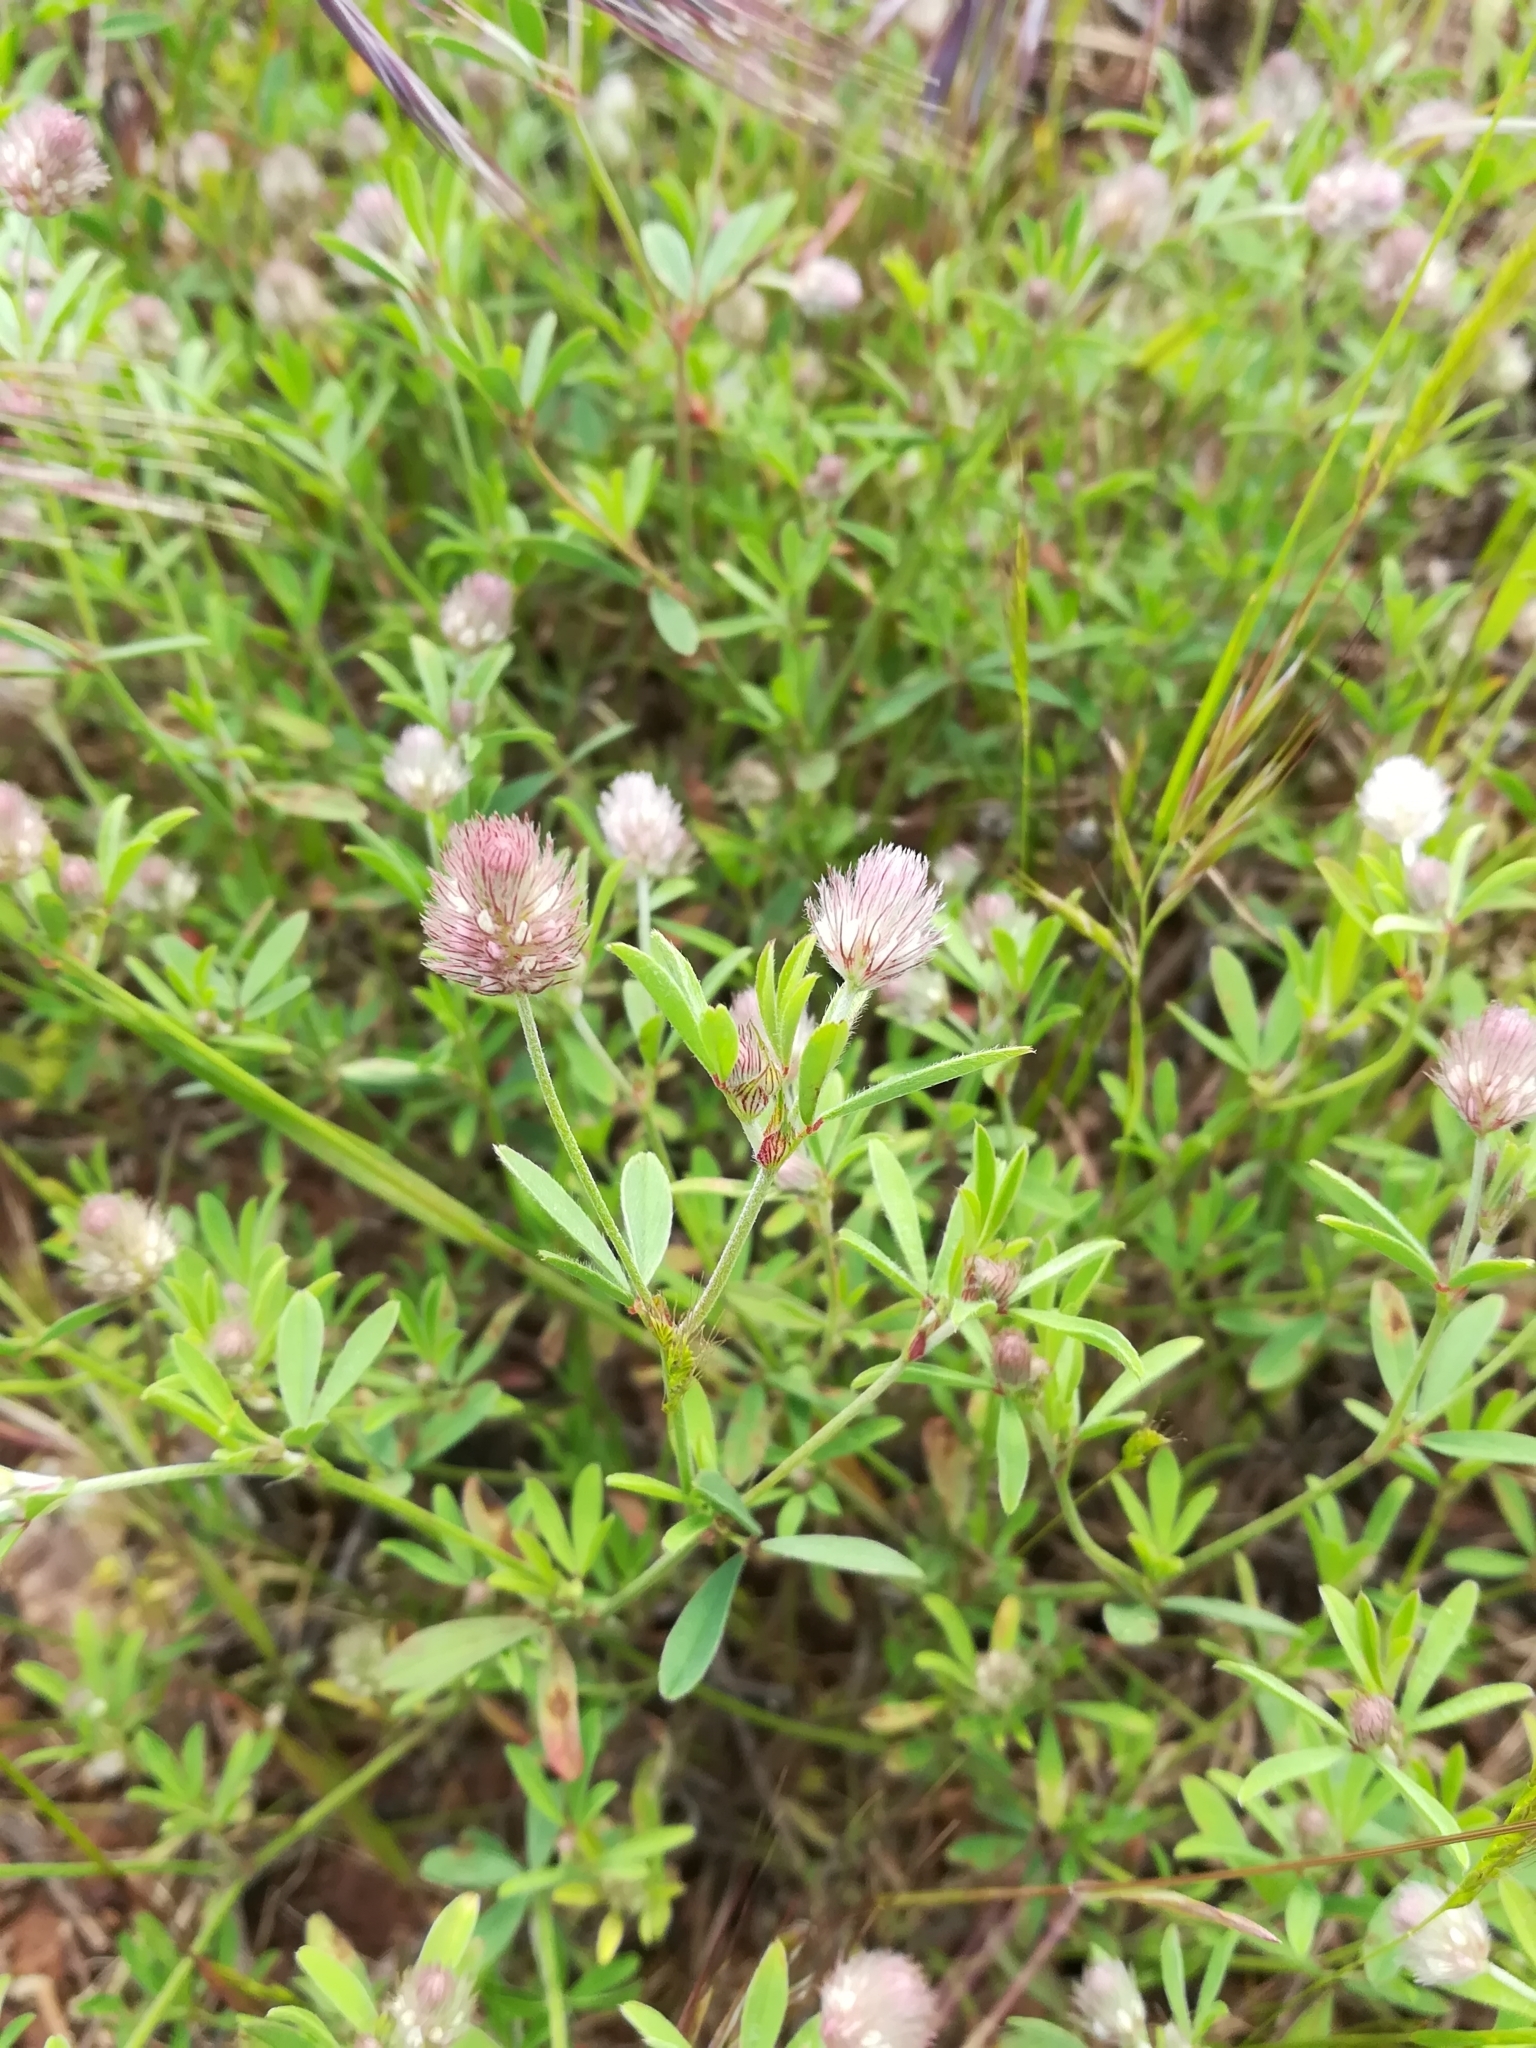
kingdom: Plantae
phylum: Tracheophyta
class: Magnoliopsida
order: Fabales
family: Fabaceae
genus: Trifolium
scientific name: Trifolium arvense
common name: Hare's-foot clover
